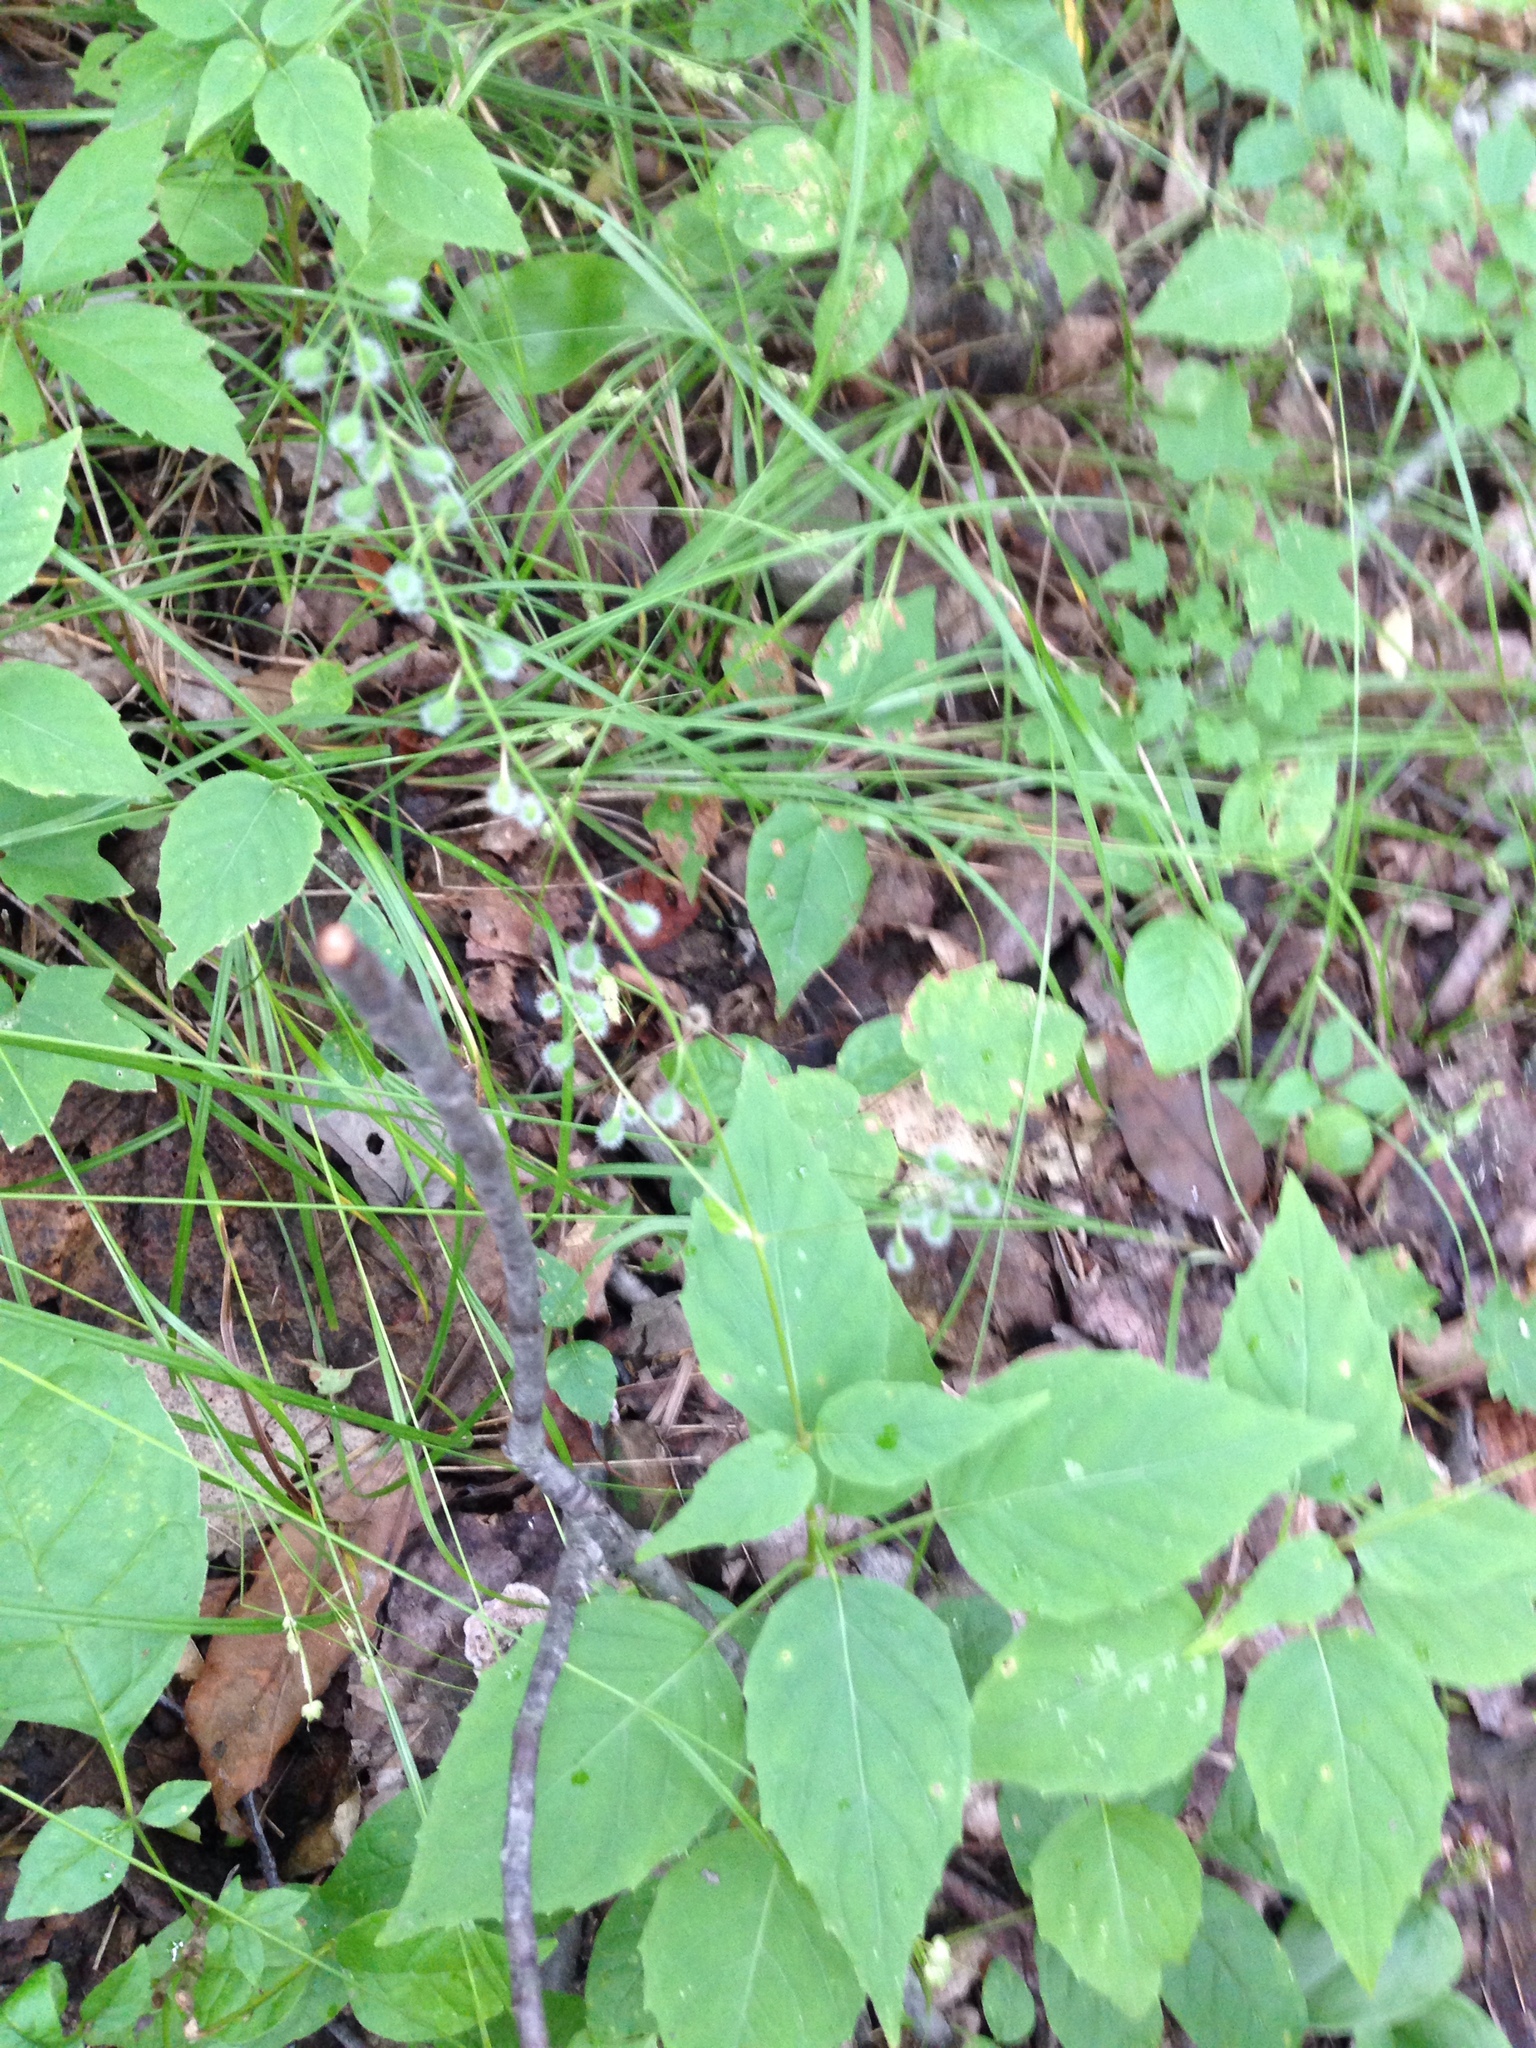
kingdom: Plantae
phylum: Tracheophyta
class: Magnoliopsida
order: Myrtales
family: Onagraceae
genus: Circaea
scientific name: Circaea canadensis
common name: Broad-leaved enchanter's nightshade
